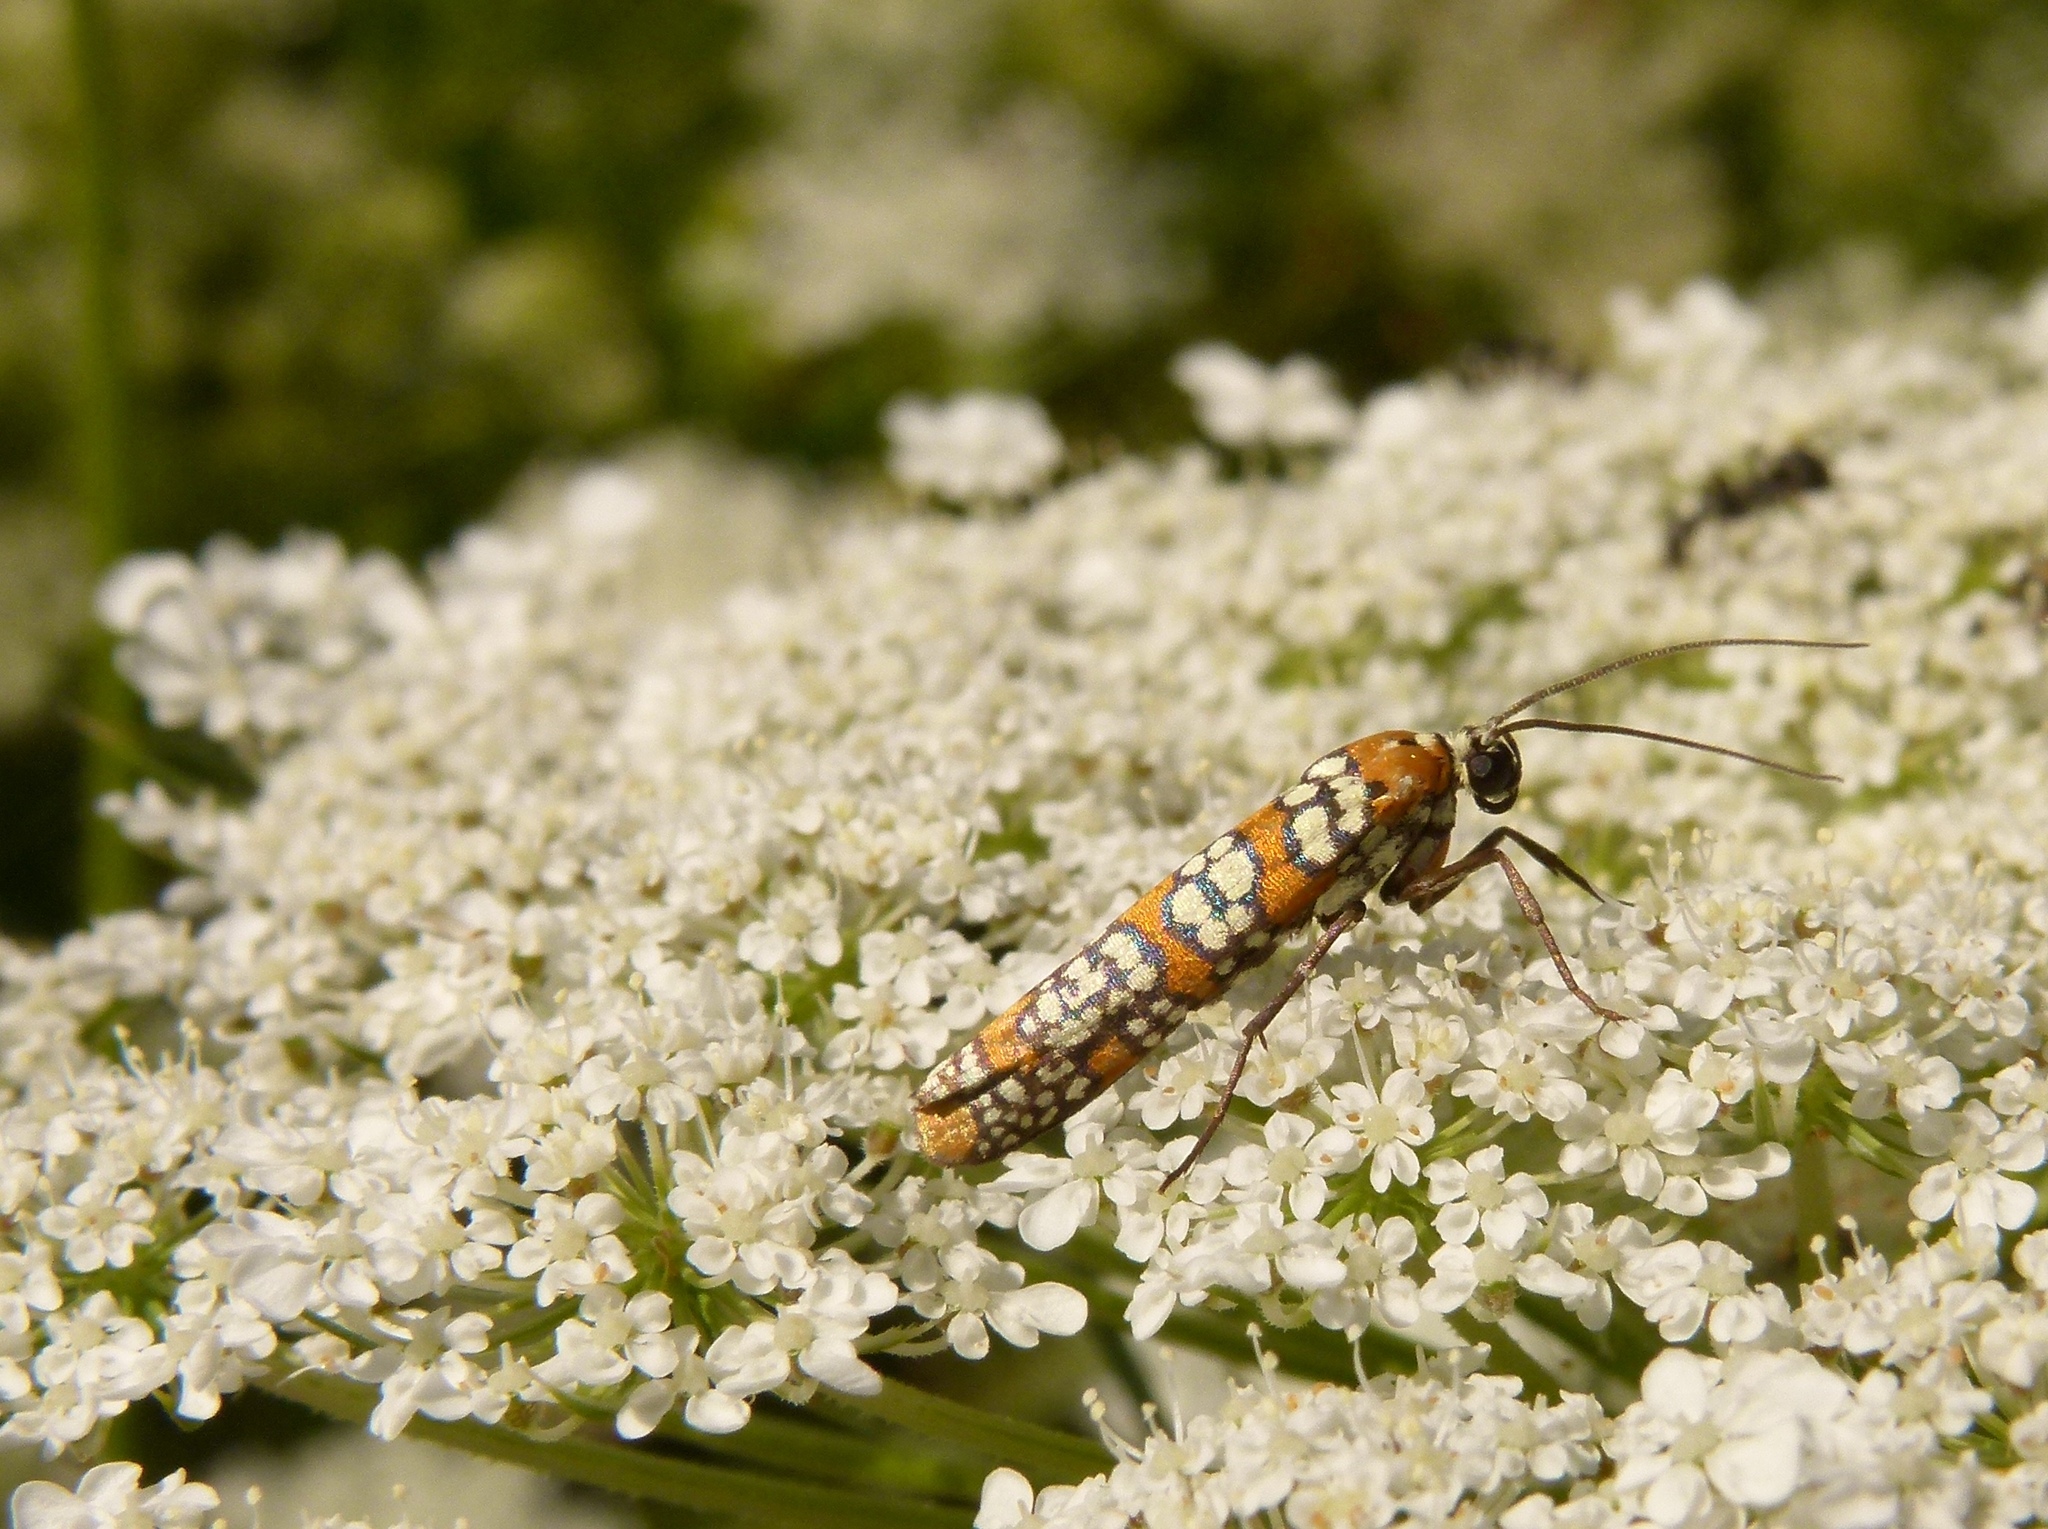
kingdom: Animalia
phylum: Arthropoda
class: Insecta
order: Lepidoptera
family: Attevidae
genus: Atteva
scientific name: Atteva punctella
